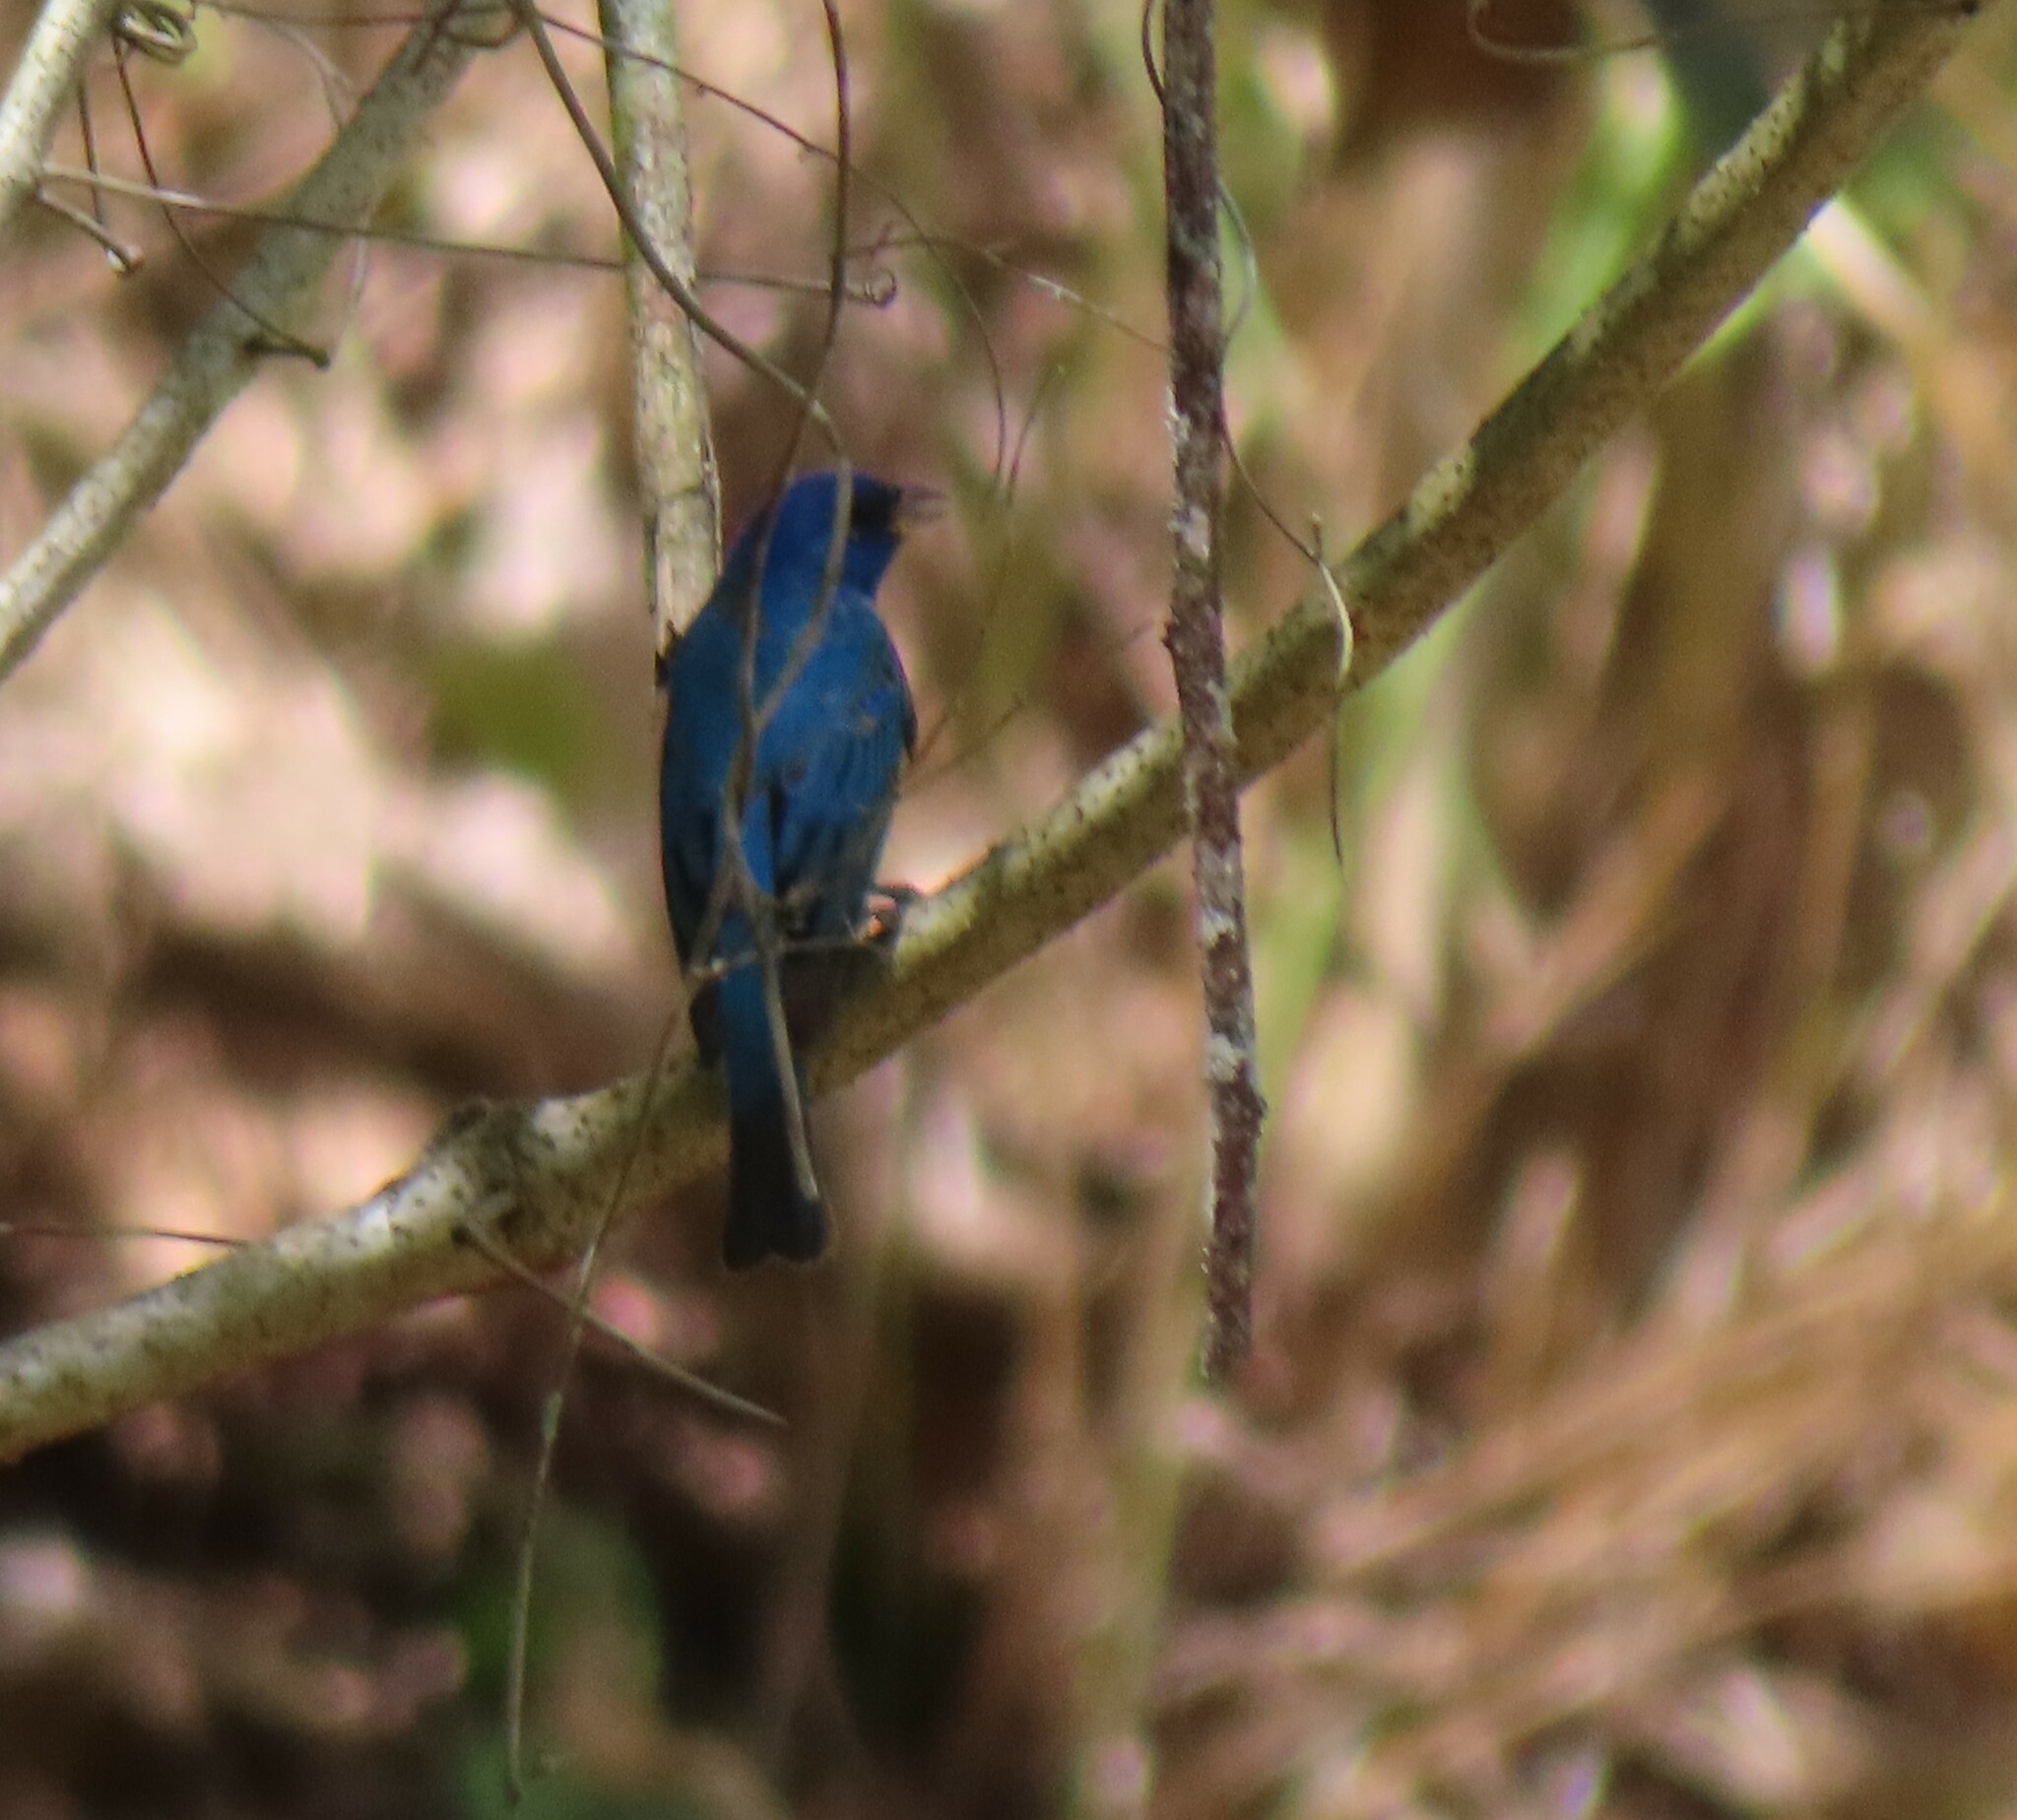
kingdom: Animalia
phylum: Chordata
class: Aves
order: Passeriformes
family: Cardinalidae
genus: Passerina
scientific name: Passerina cyanea
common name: Indigo bunting
